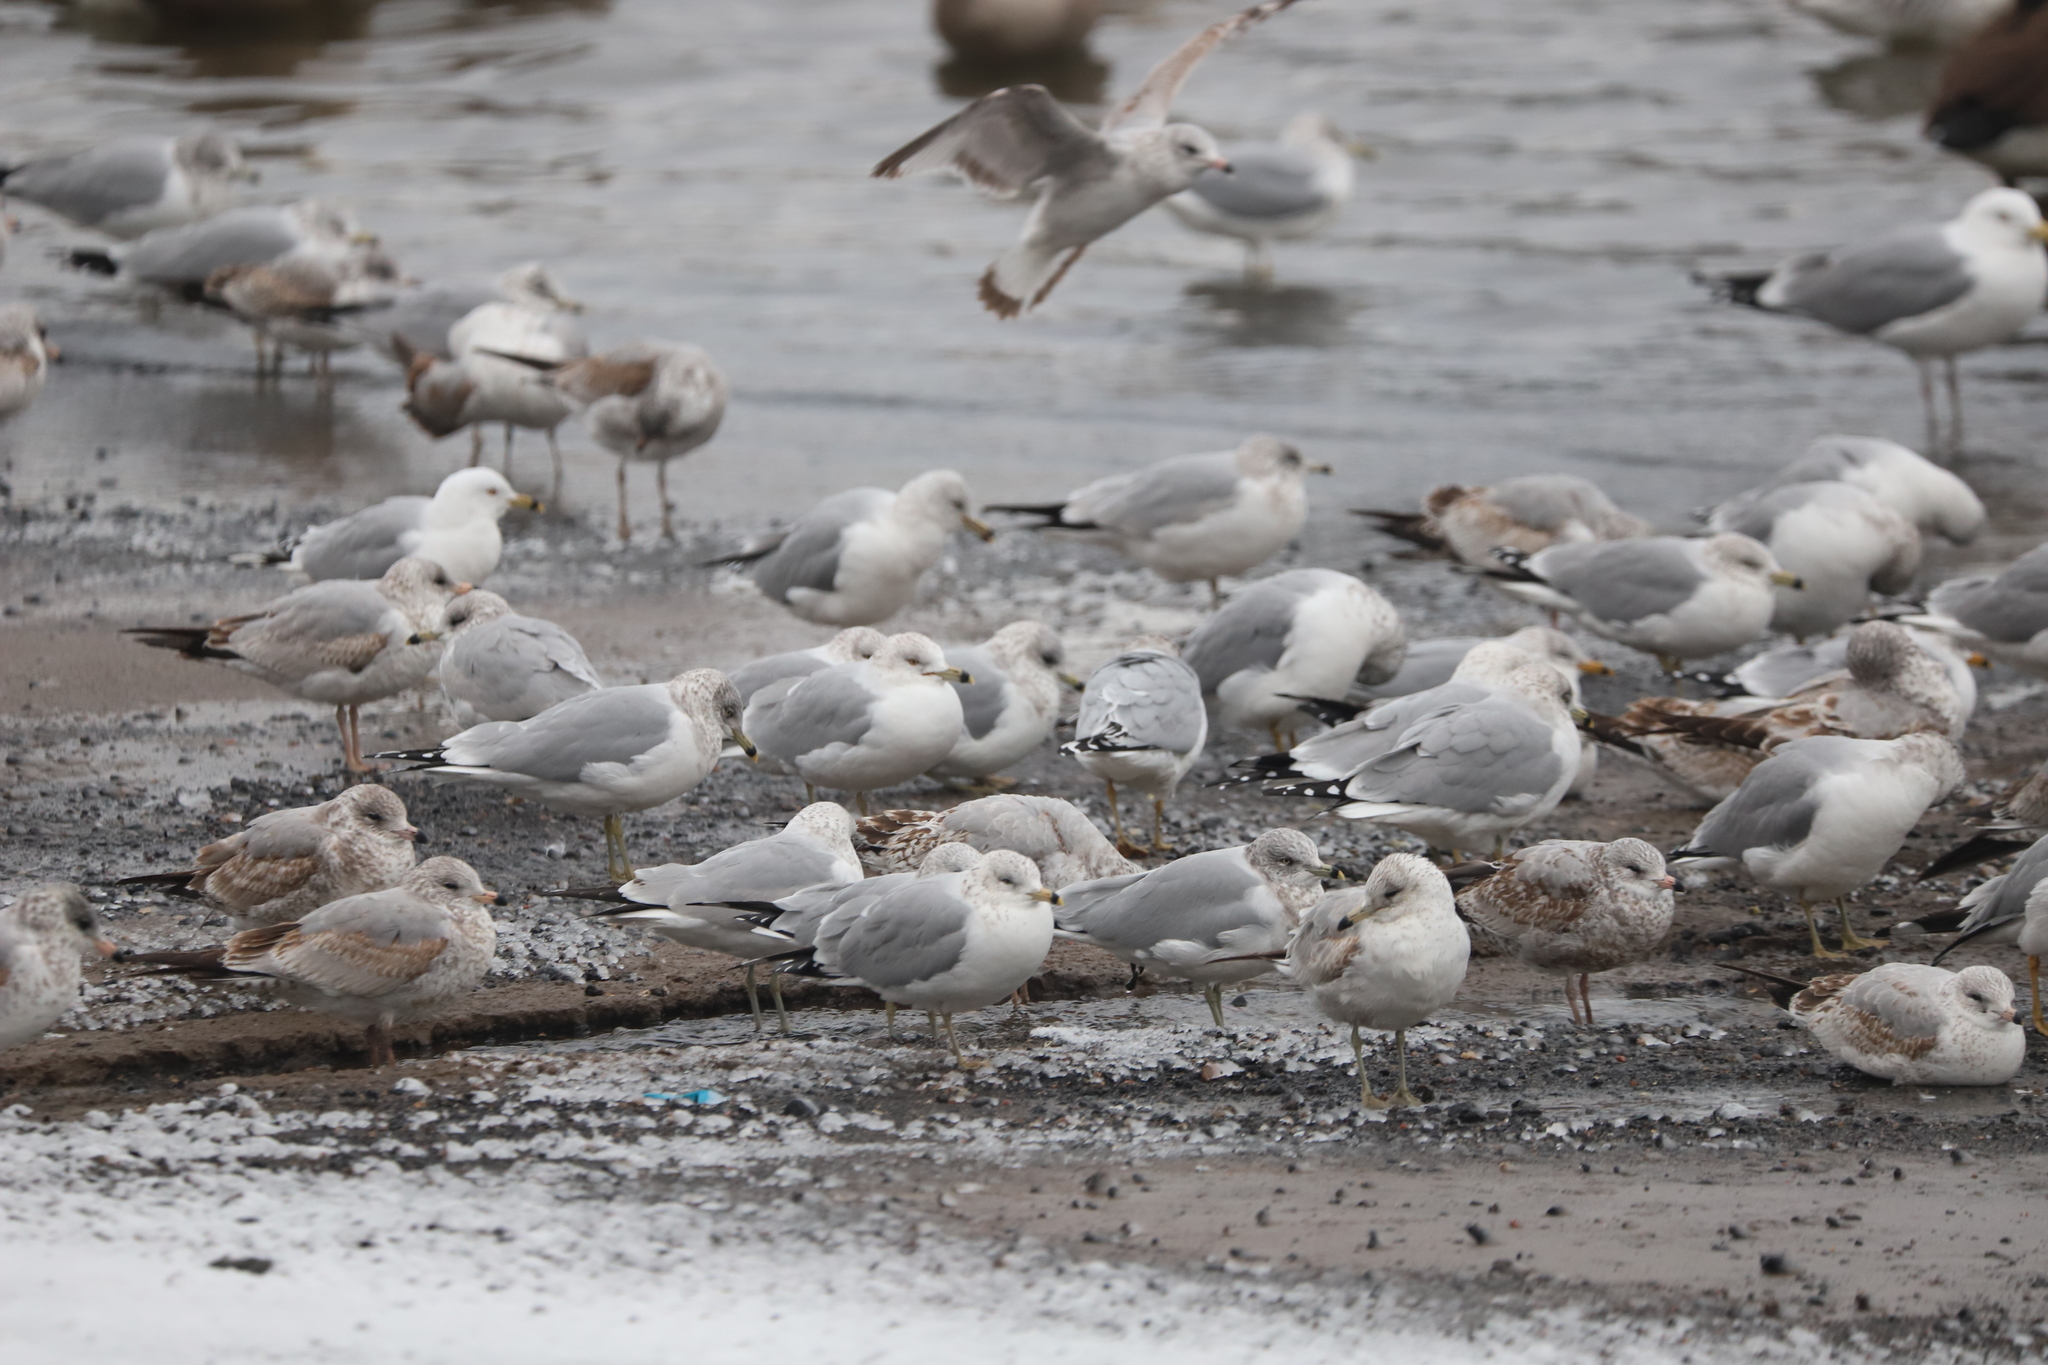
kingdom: Animalia
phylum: Chordata
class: Aves
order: Charadriiformes
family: Laridae
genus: Larus
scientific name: Larus delawarensis
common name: Ring-billed gull
